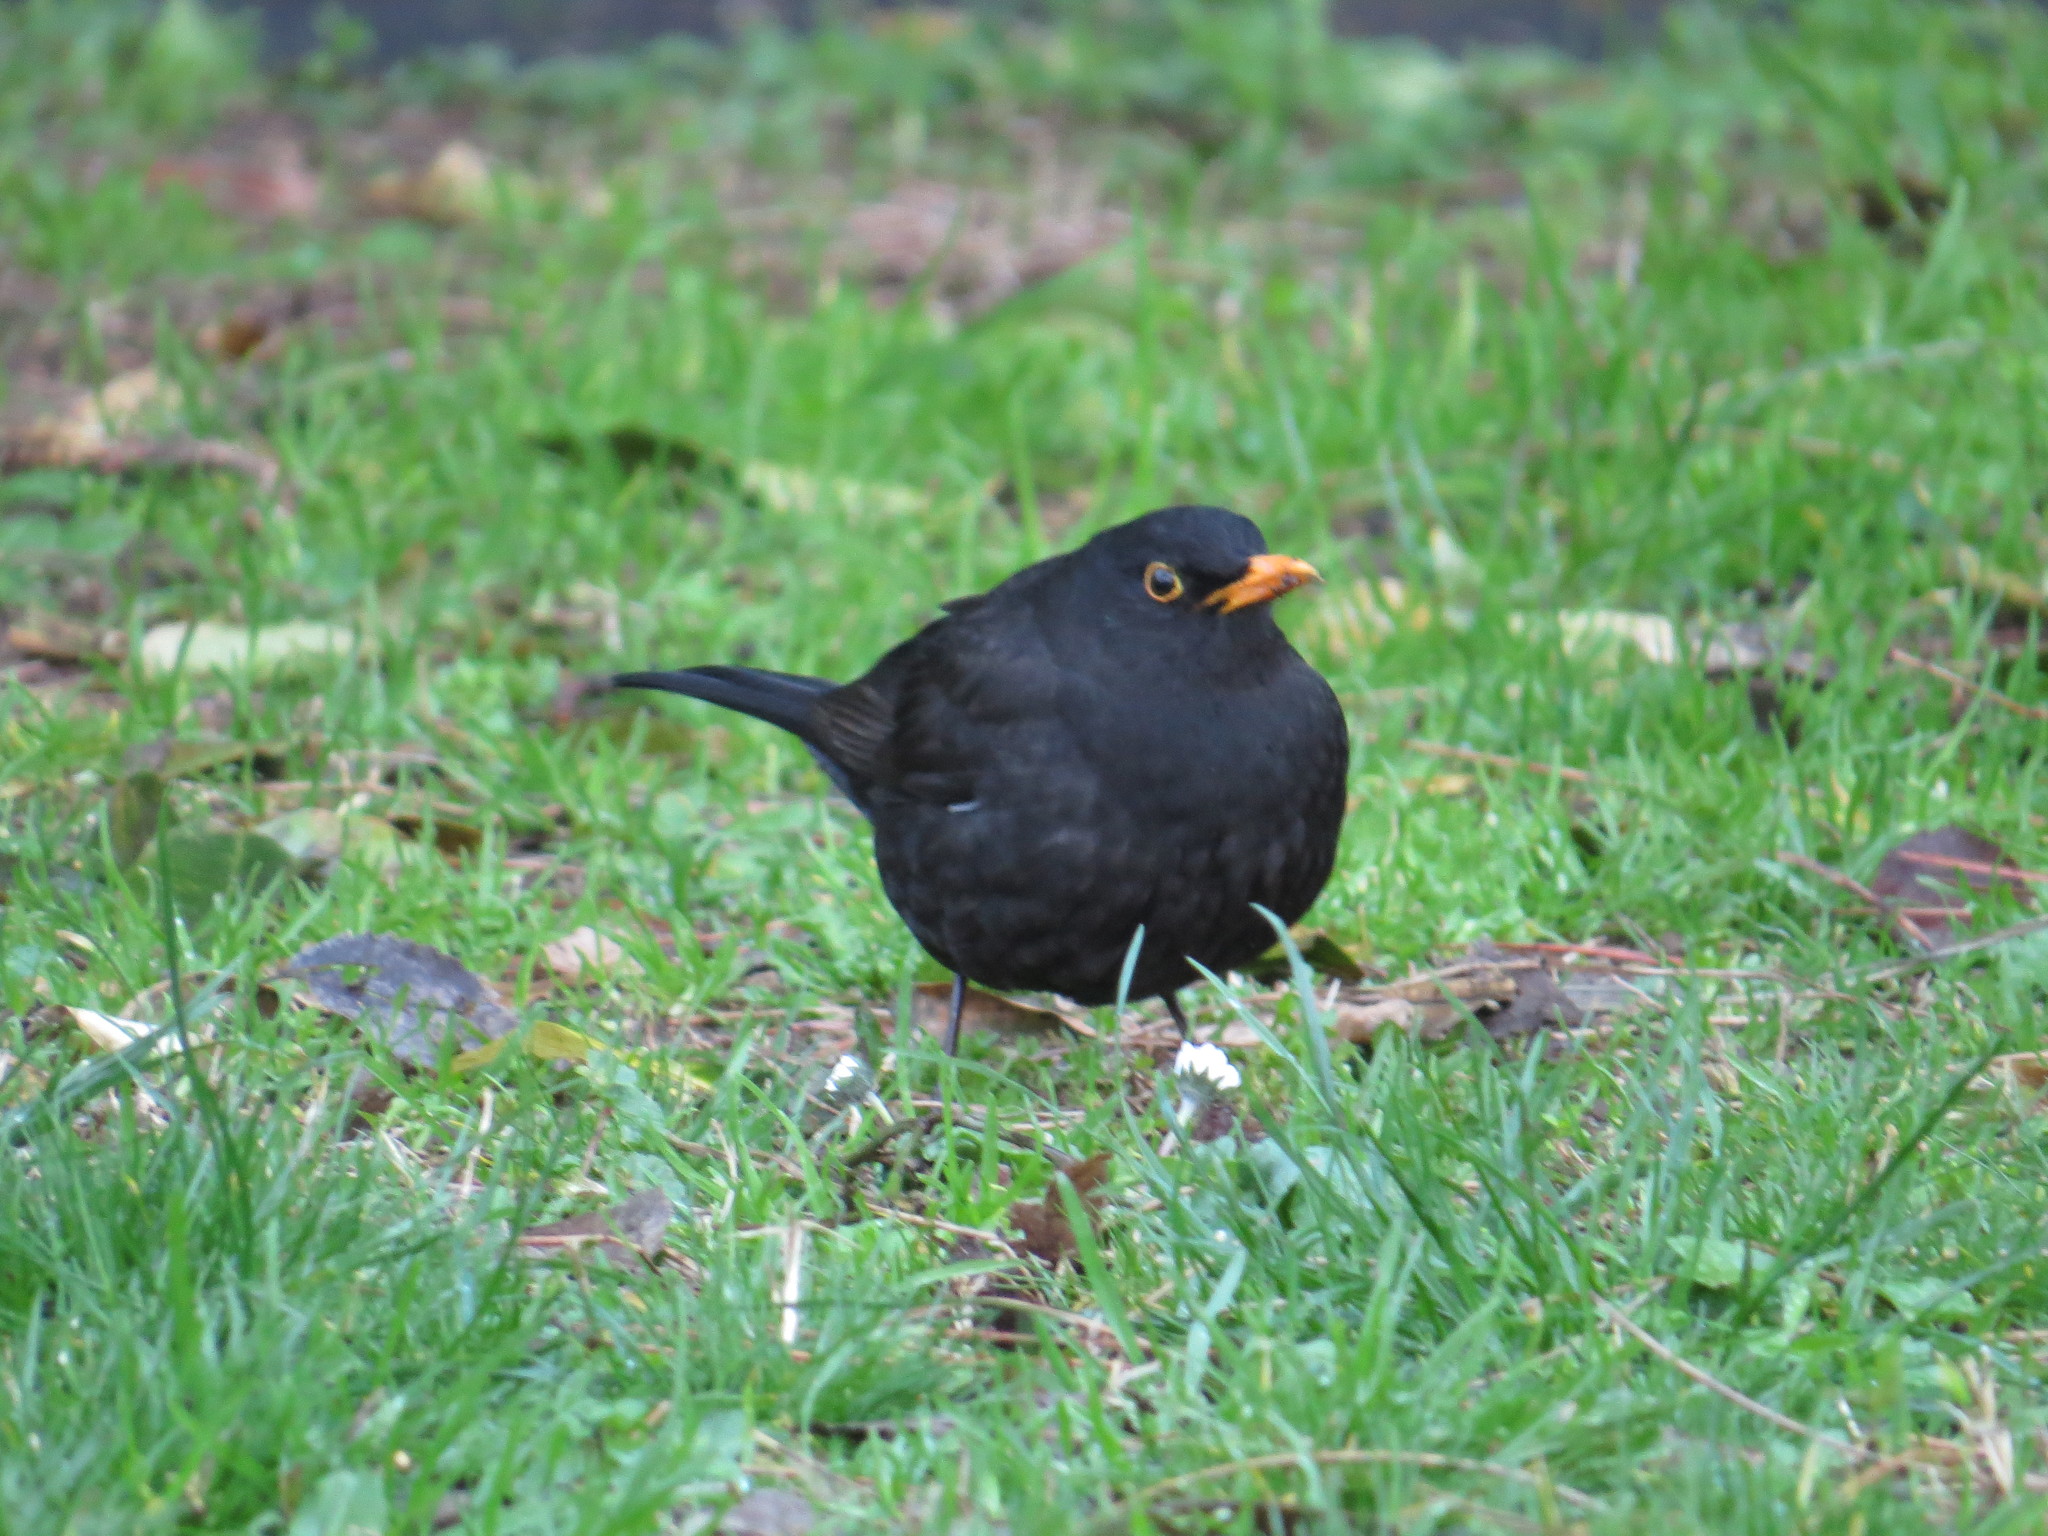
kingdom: Animalia
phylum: Chordata
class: Aves
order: Passeriformes
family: Turdidae
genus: Turdus
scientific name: Turdus merula
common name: Common blackbird
